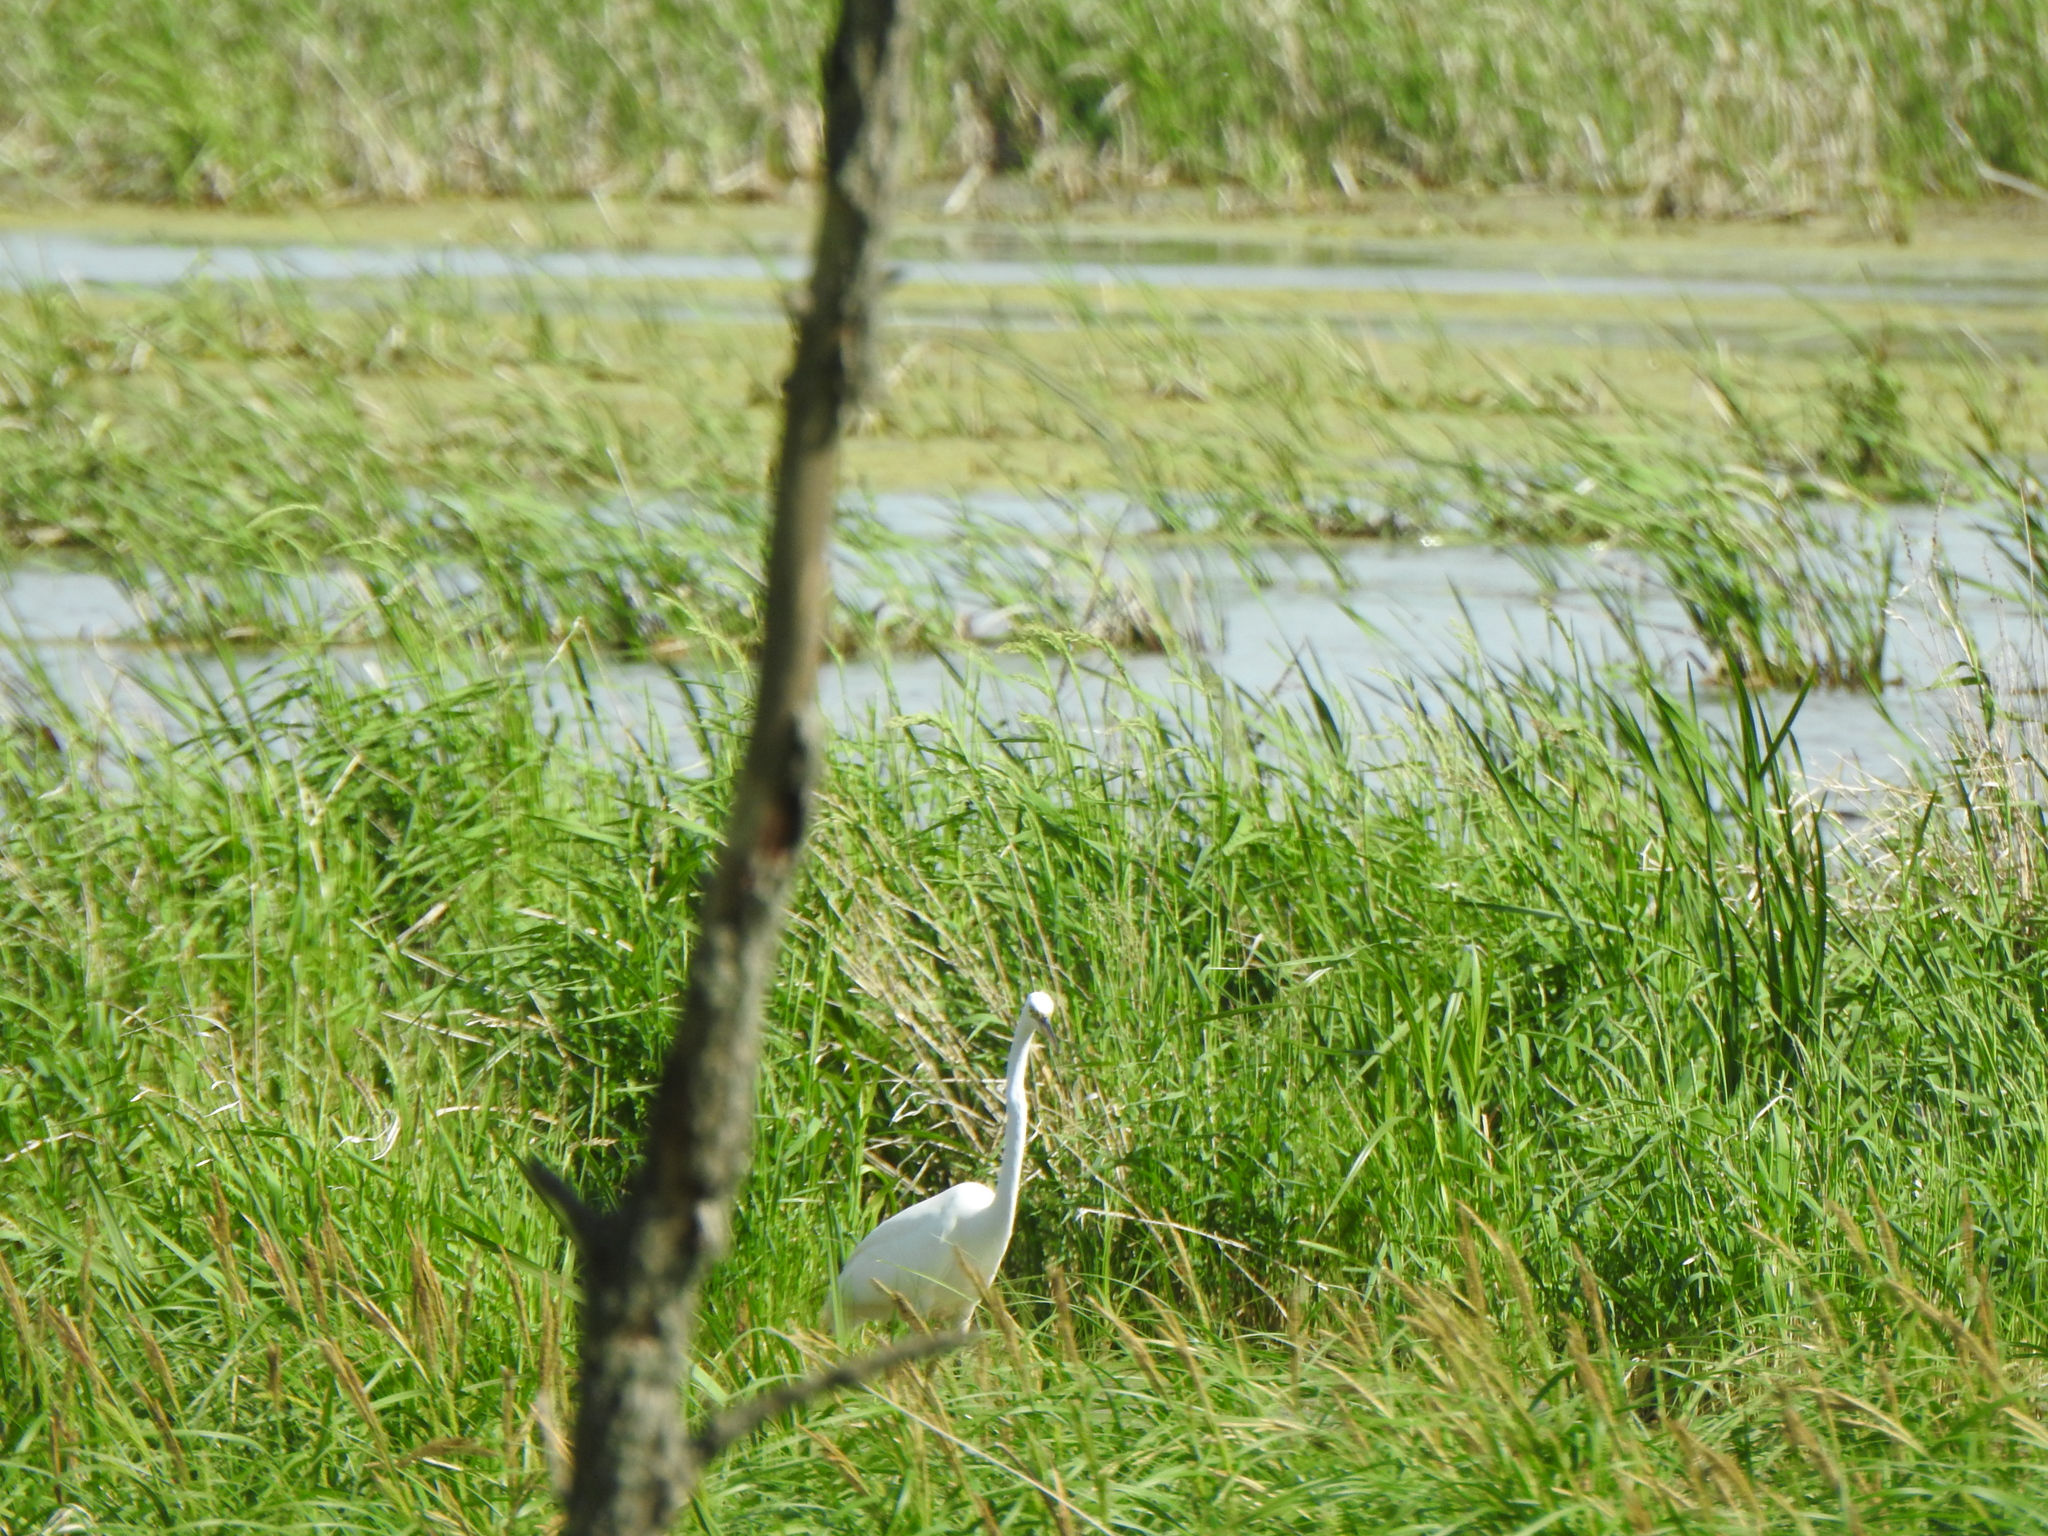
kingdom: Animalia
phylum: Chordata
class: Aves
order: Pelecaniformes
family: Ardeidae
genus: Ardea
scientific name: Ardea alba
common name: Great egret
